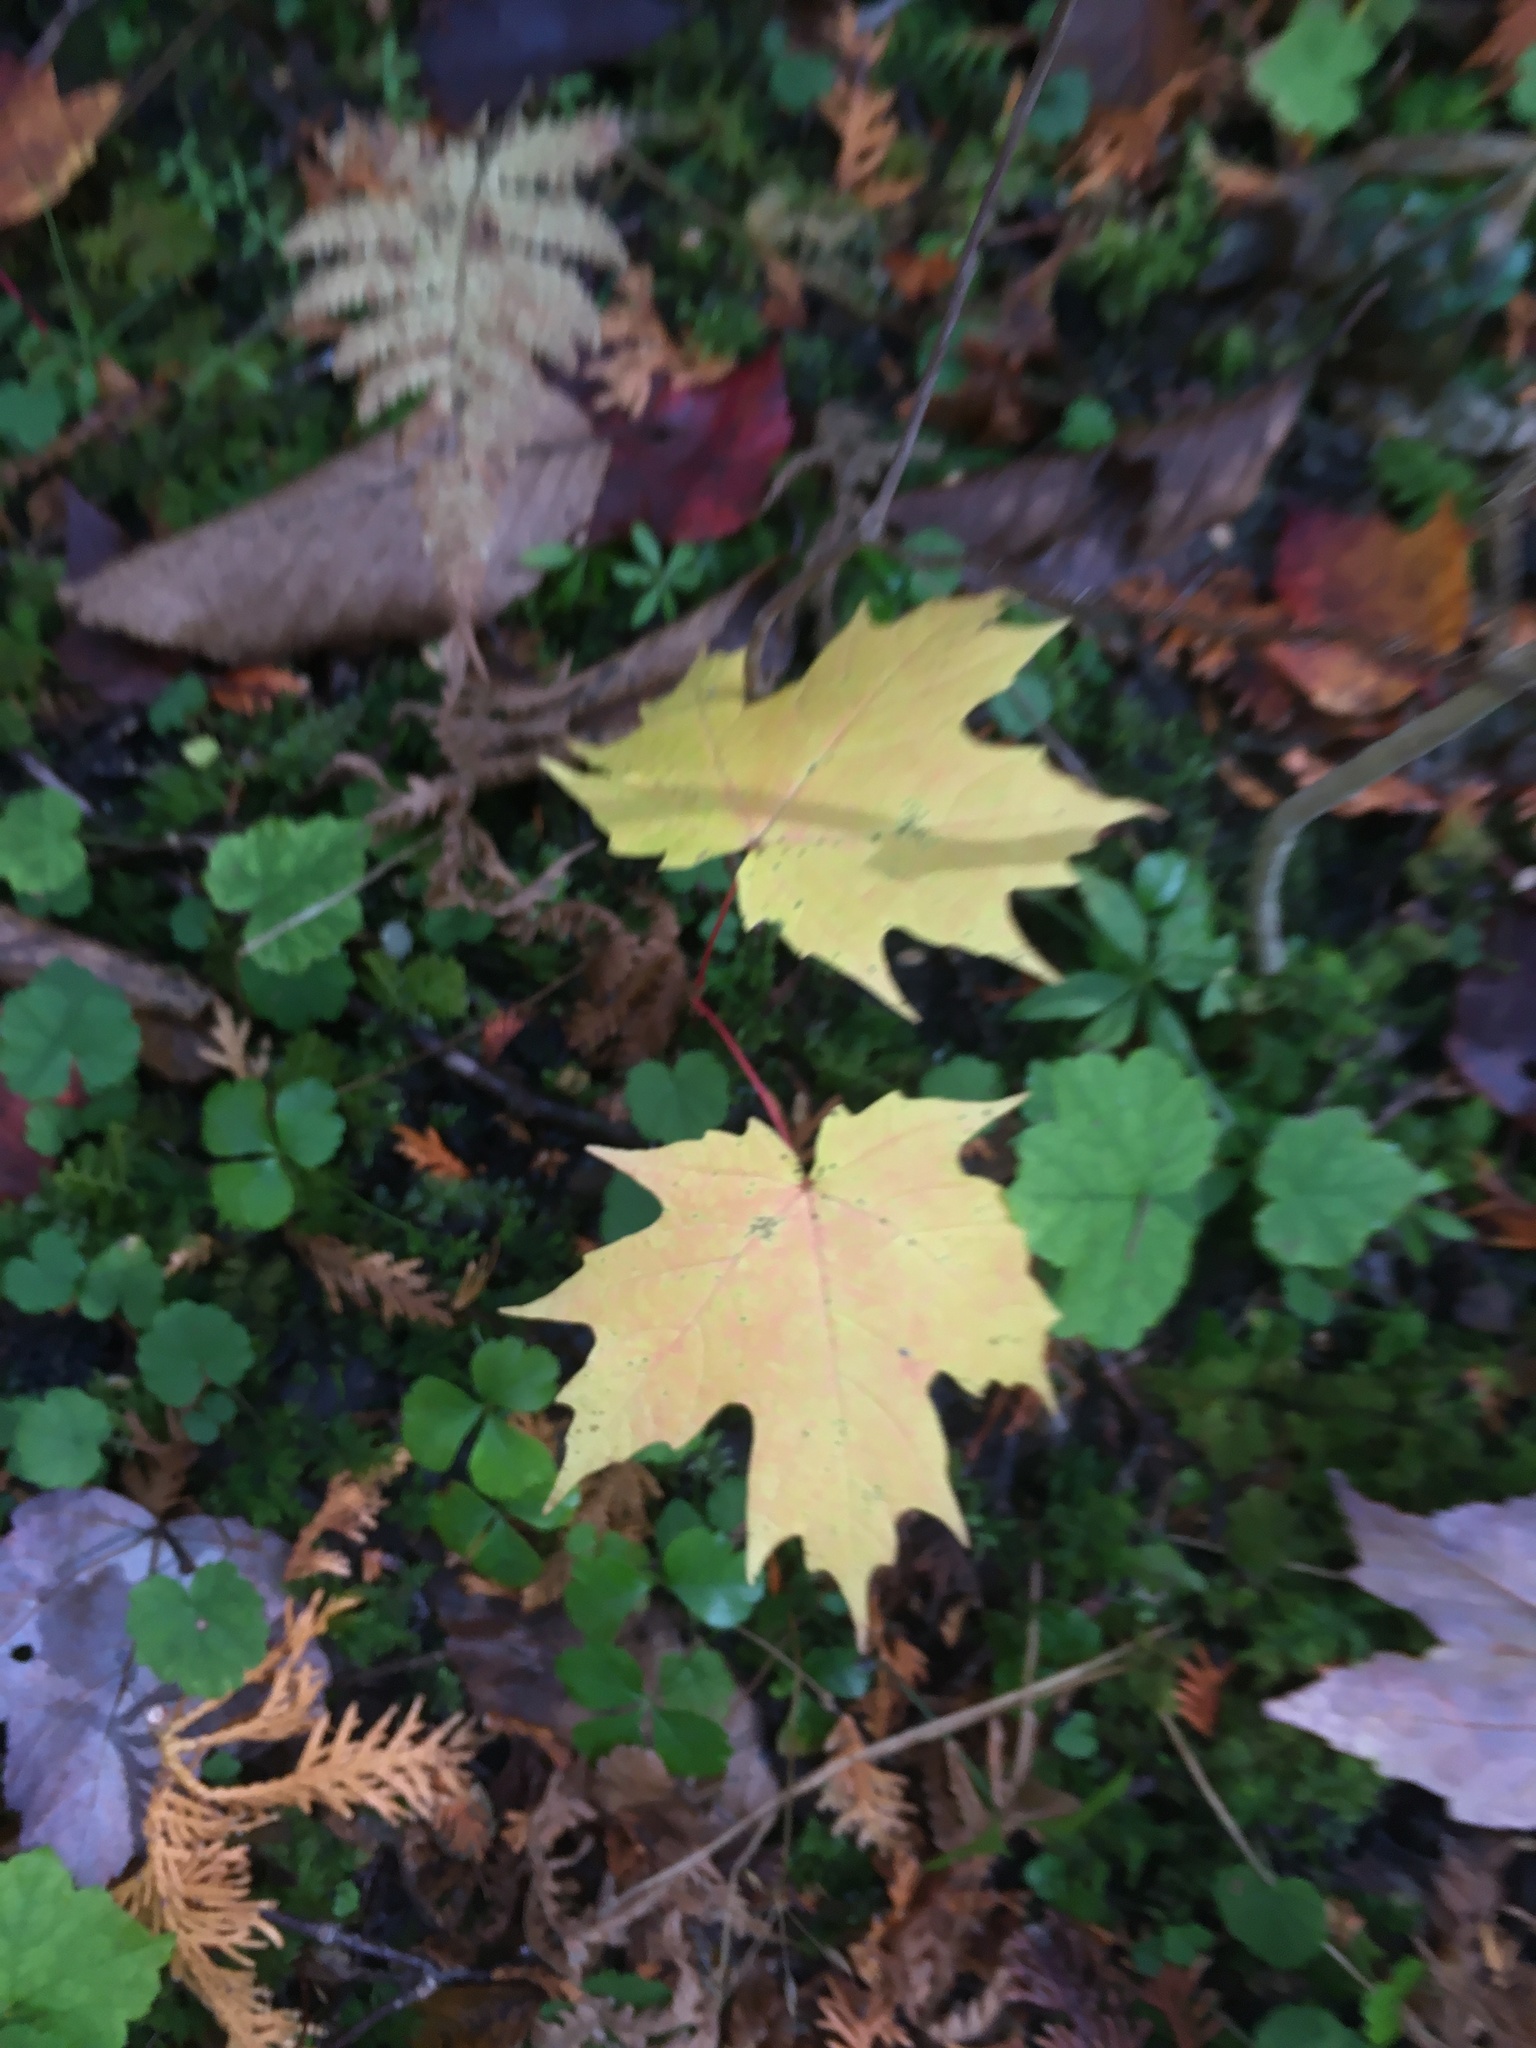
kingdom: Plantae
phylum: Tracheophyta
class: Magnoliopsida
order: Sapindales
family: Sapindaceae
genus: Acer
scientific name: Acer saccharum
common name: Sugar maple
